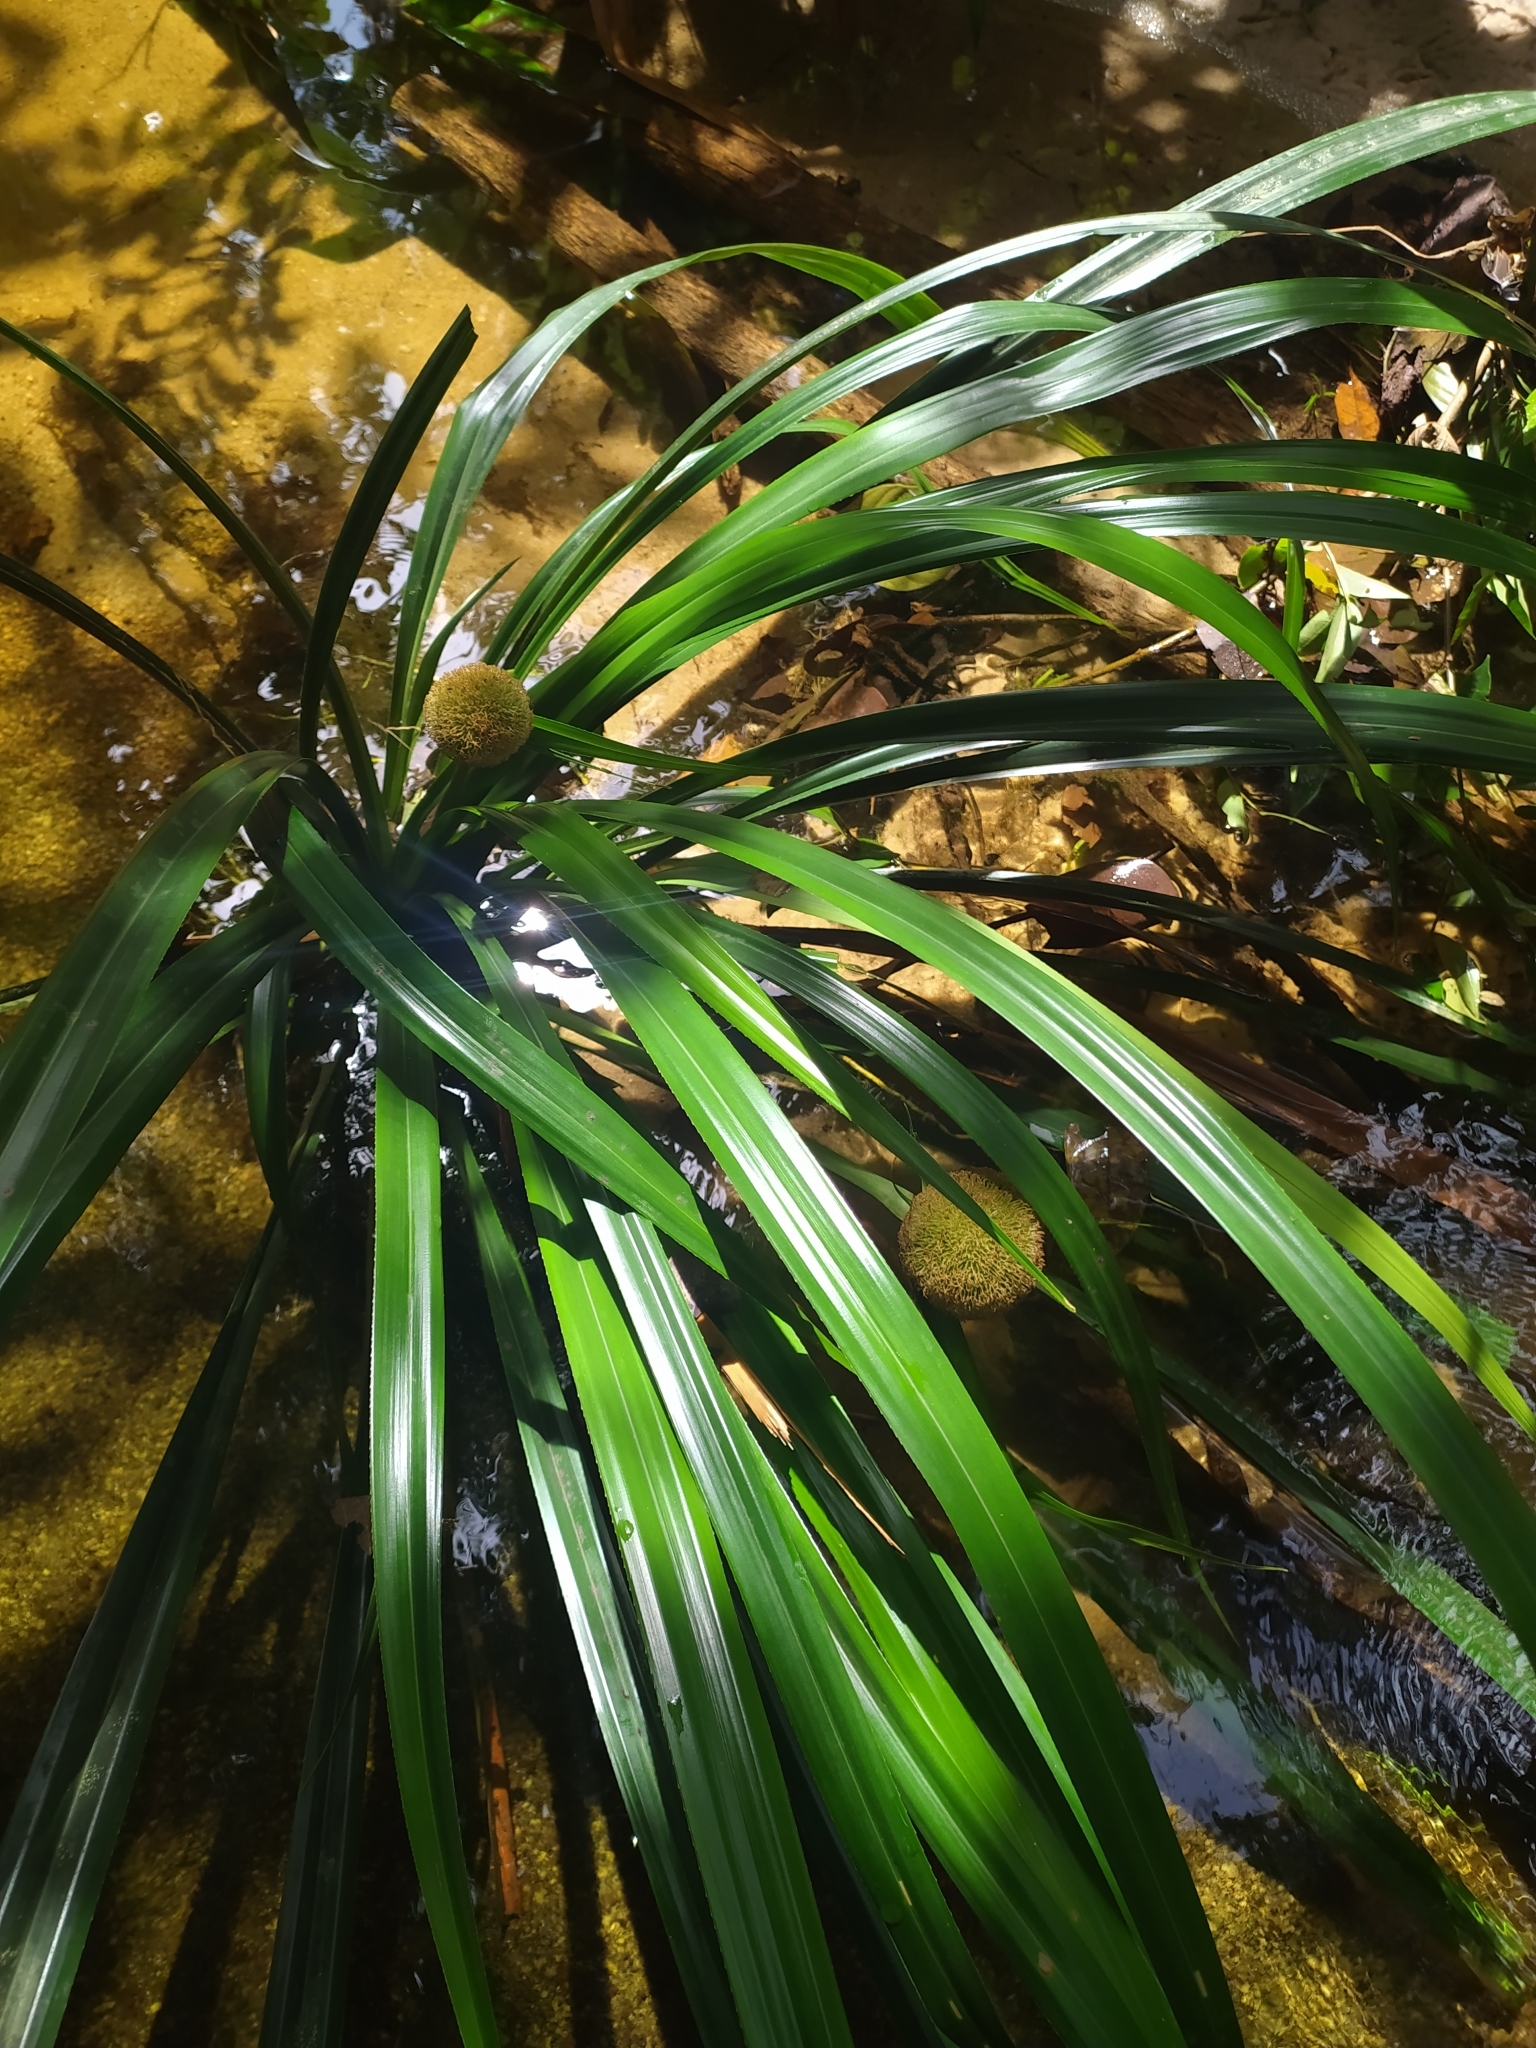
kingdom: Plantae
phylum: Tracheophyta
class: Liliopsida
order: Poales
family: Thurniaceae
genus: Thurnia
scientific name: Thurnia sphaerocephala
